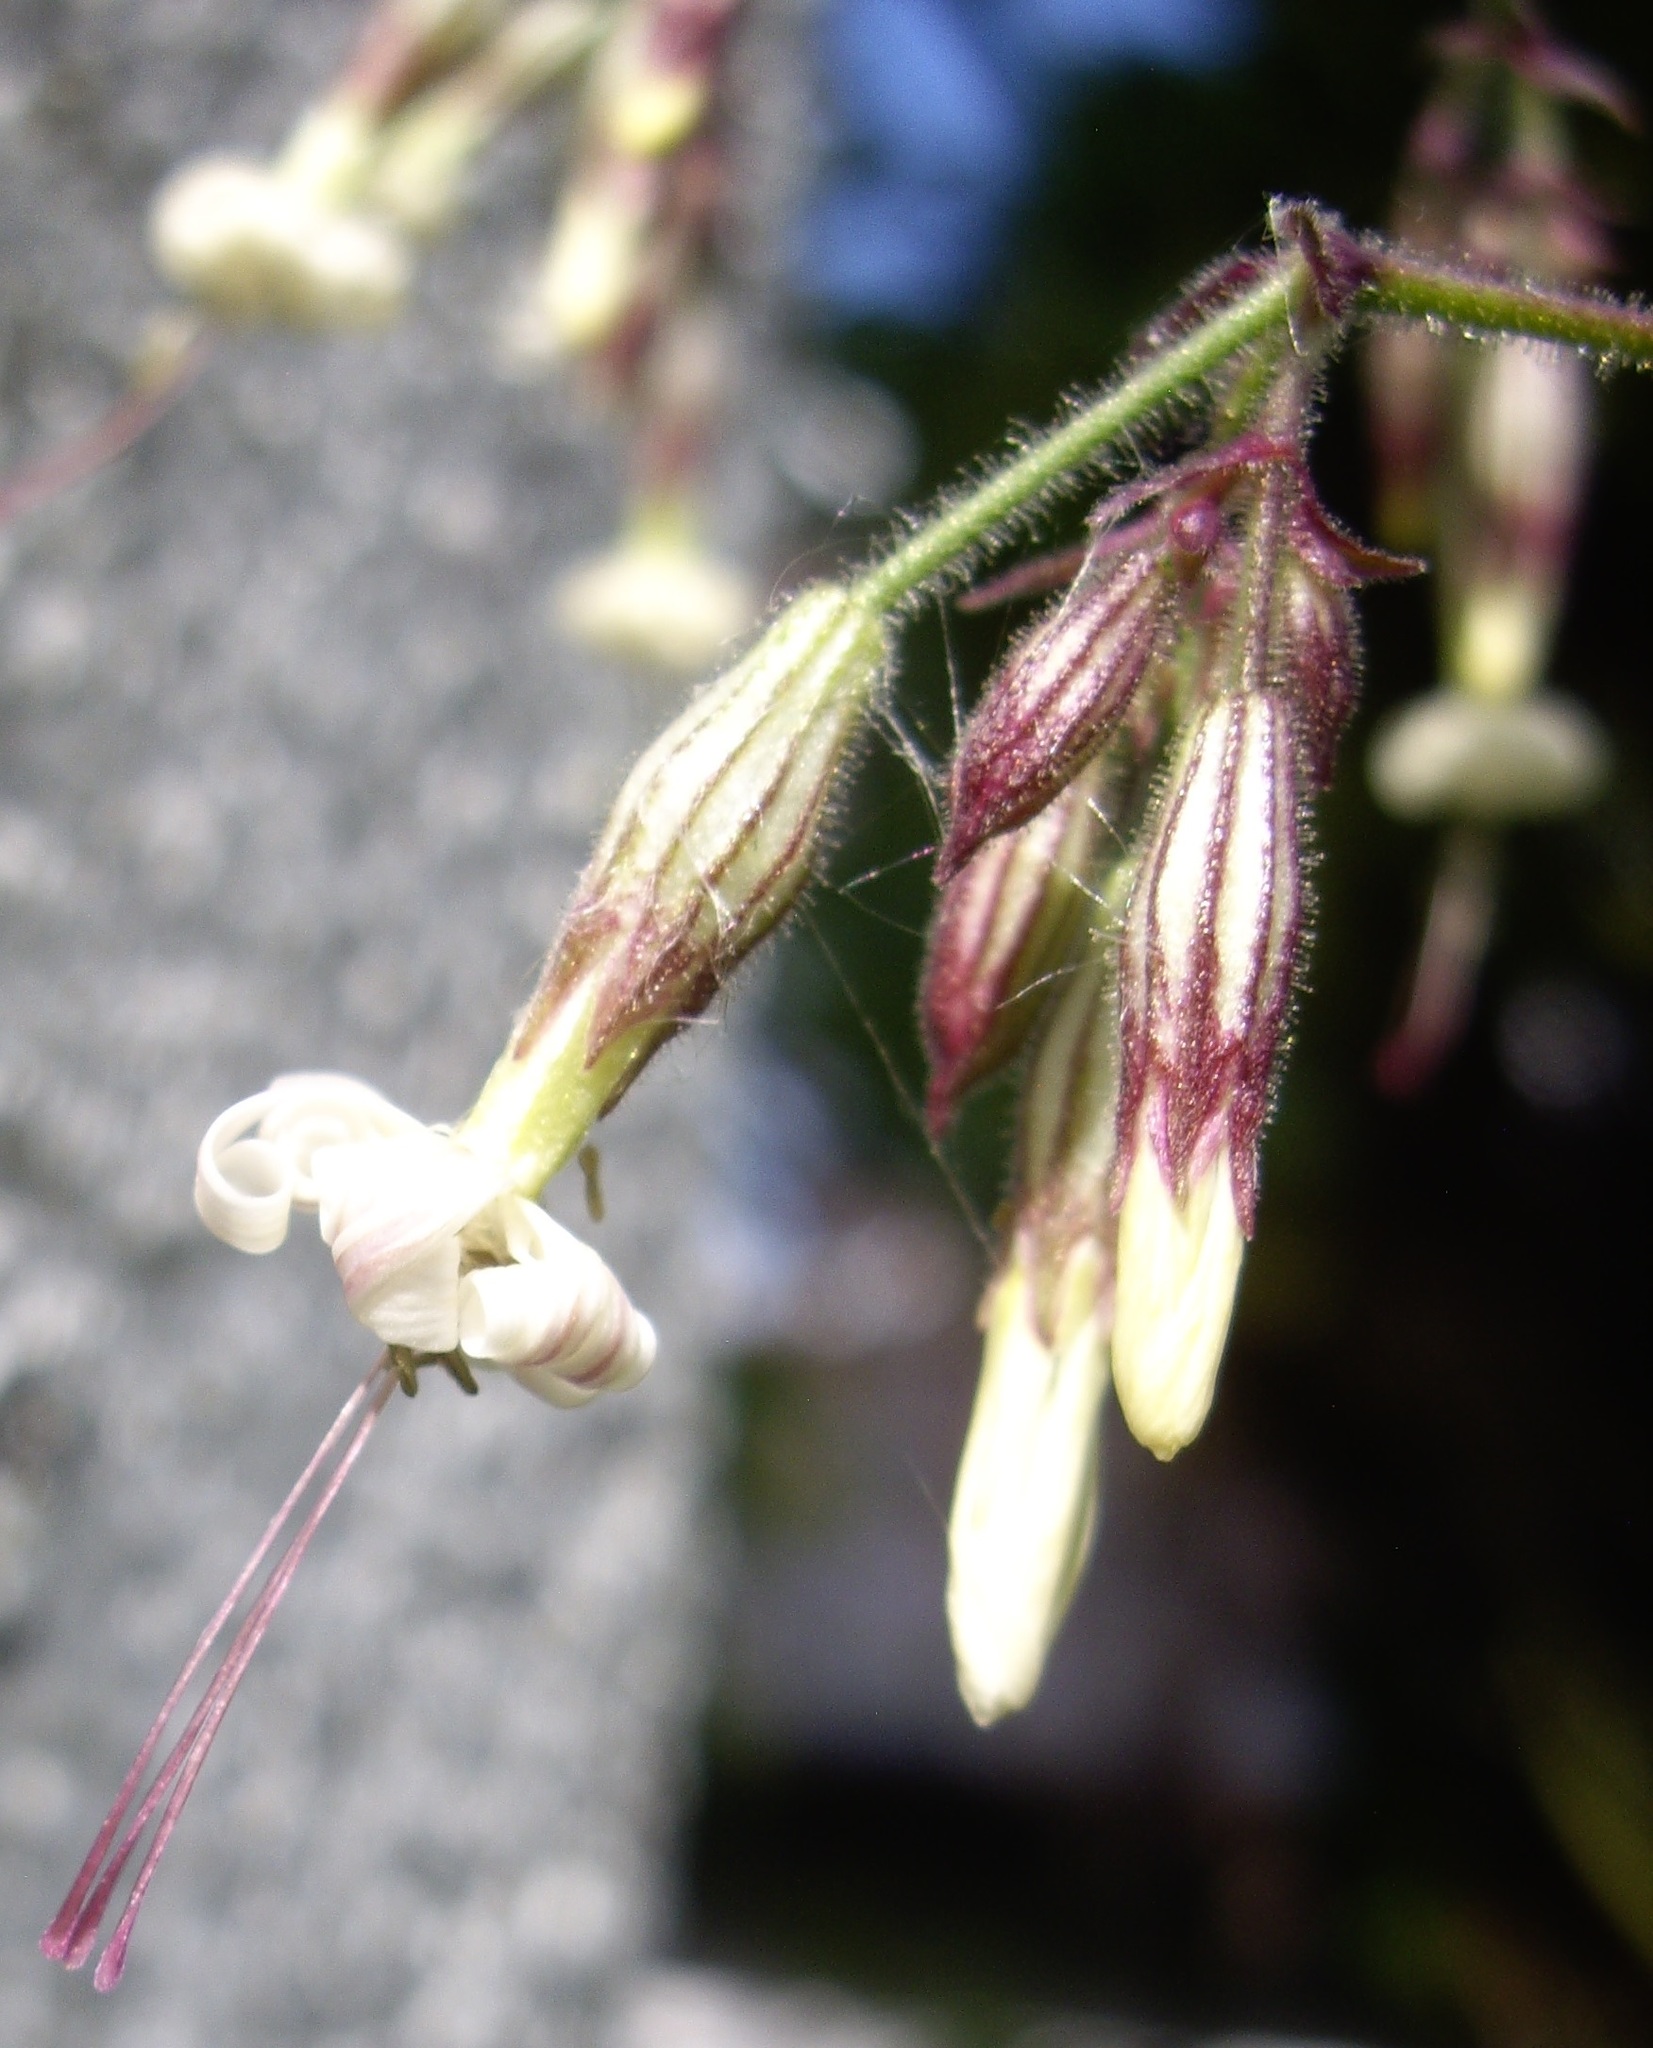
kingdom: Plantae
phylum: Tracheophyta
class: Magnoliopsida
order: Caryophyllales
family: Caryophyllaceae
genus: Silene
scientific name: Silene nutans
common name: Nottingham catchfly
